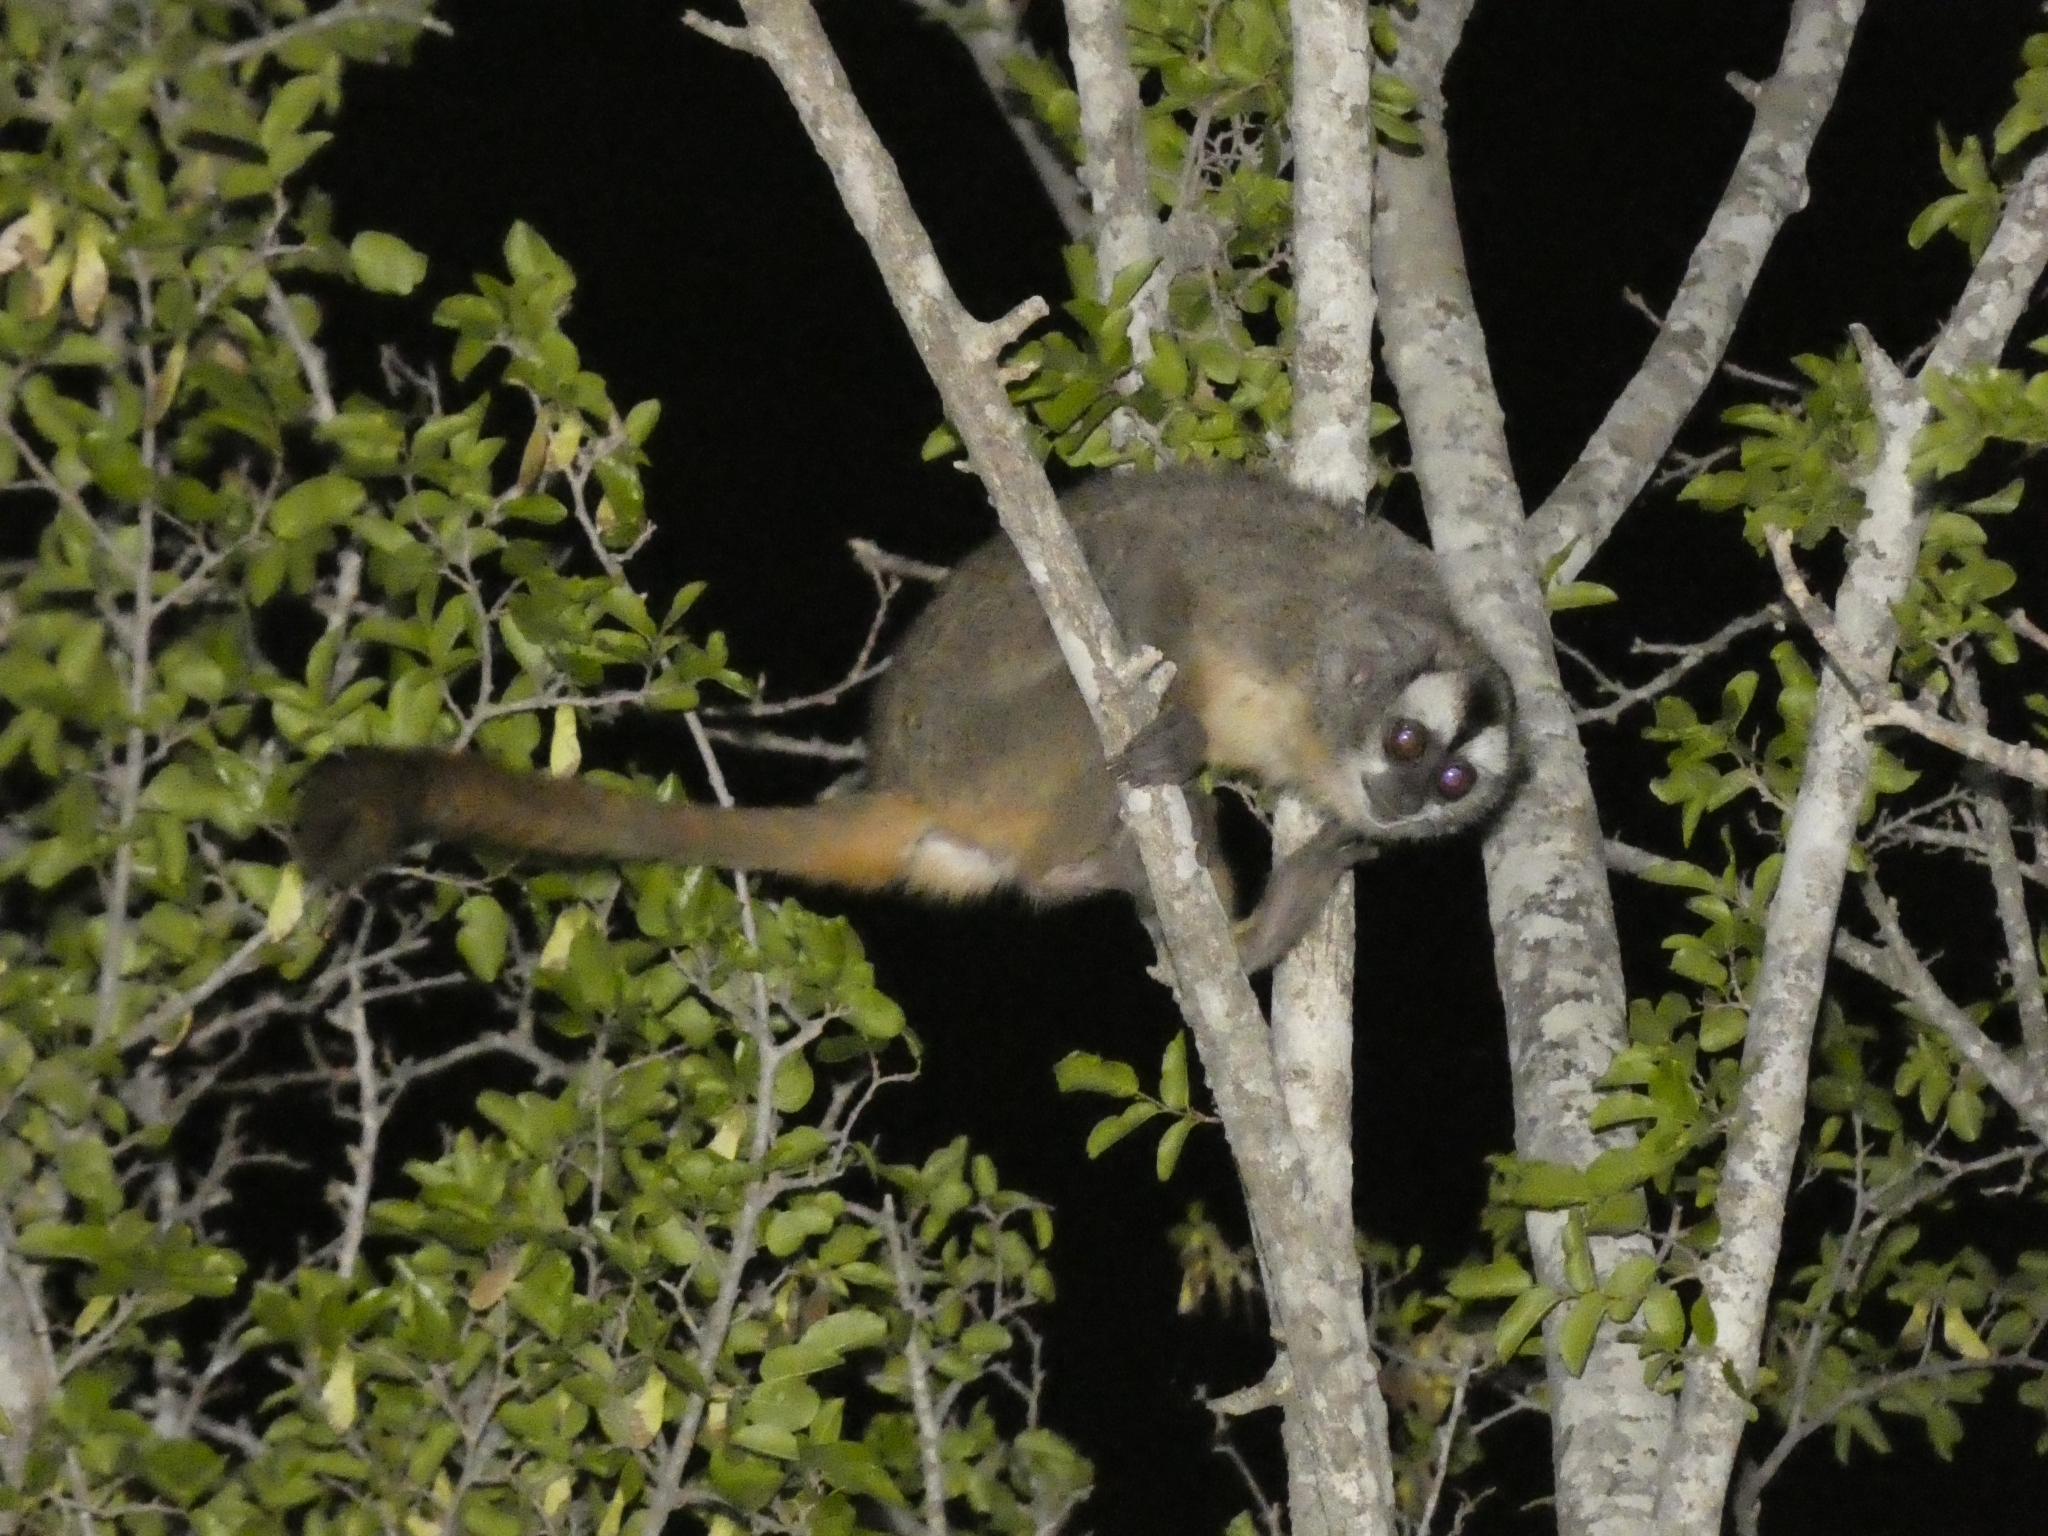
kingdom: Animalia
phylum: Chordata
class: Mammalia
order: Primates
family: Aotidae
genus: Aotus
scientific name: Aotus azarae
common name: Azara's night monkey
